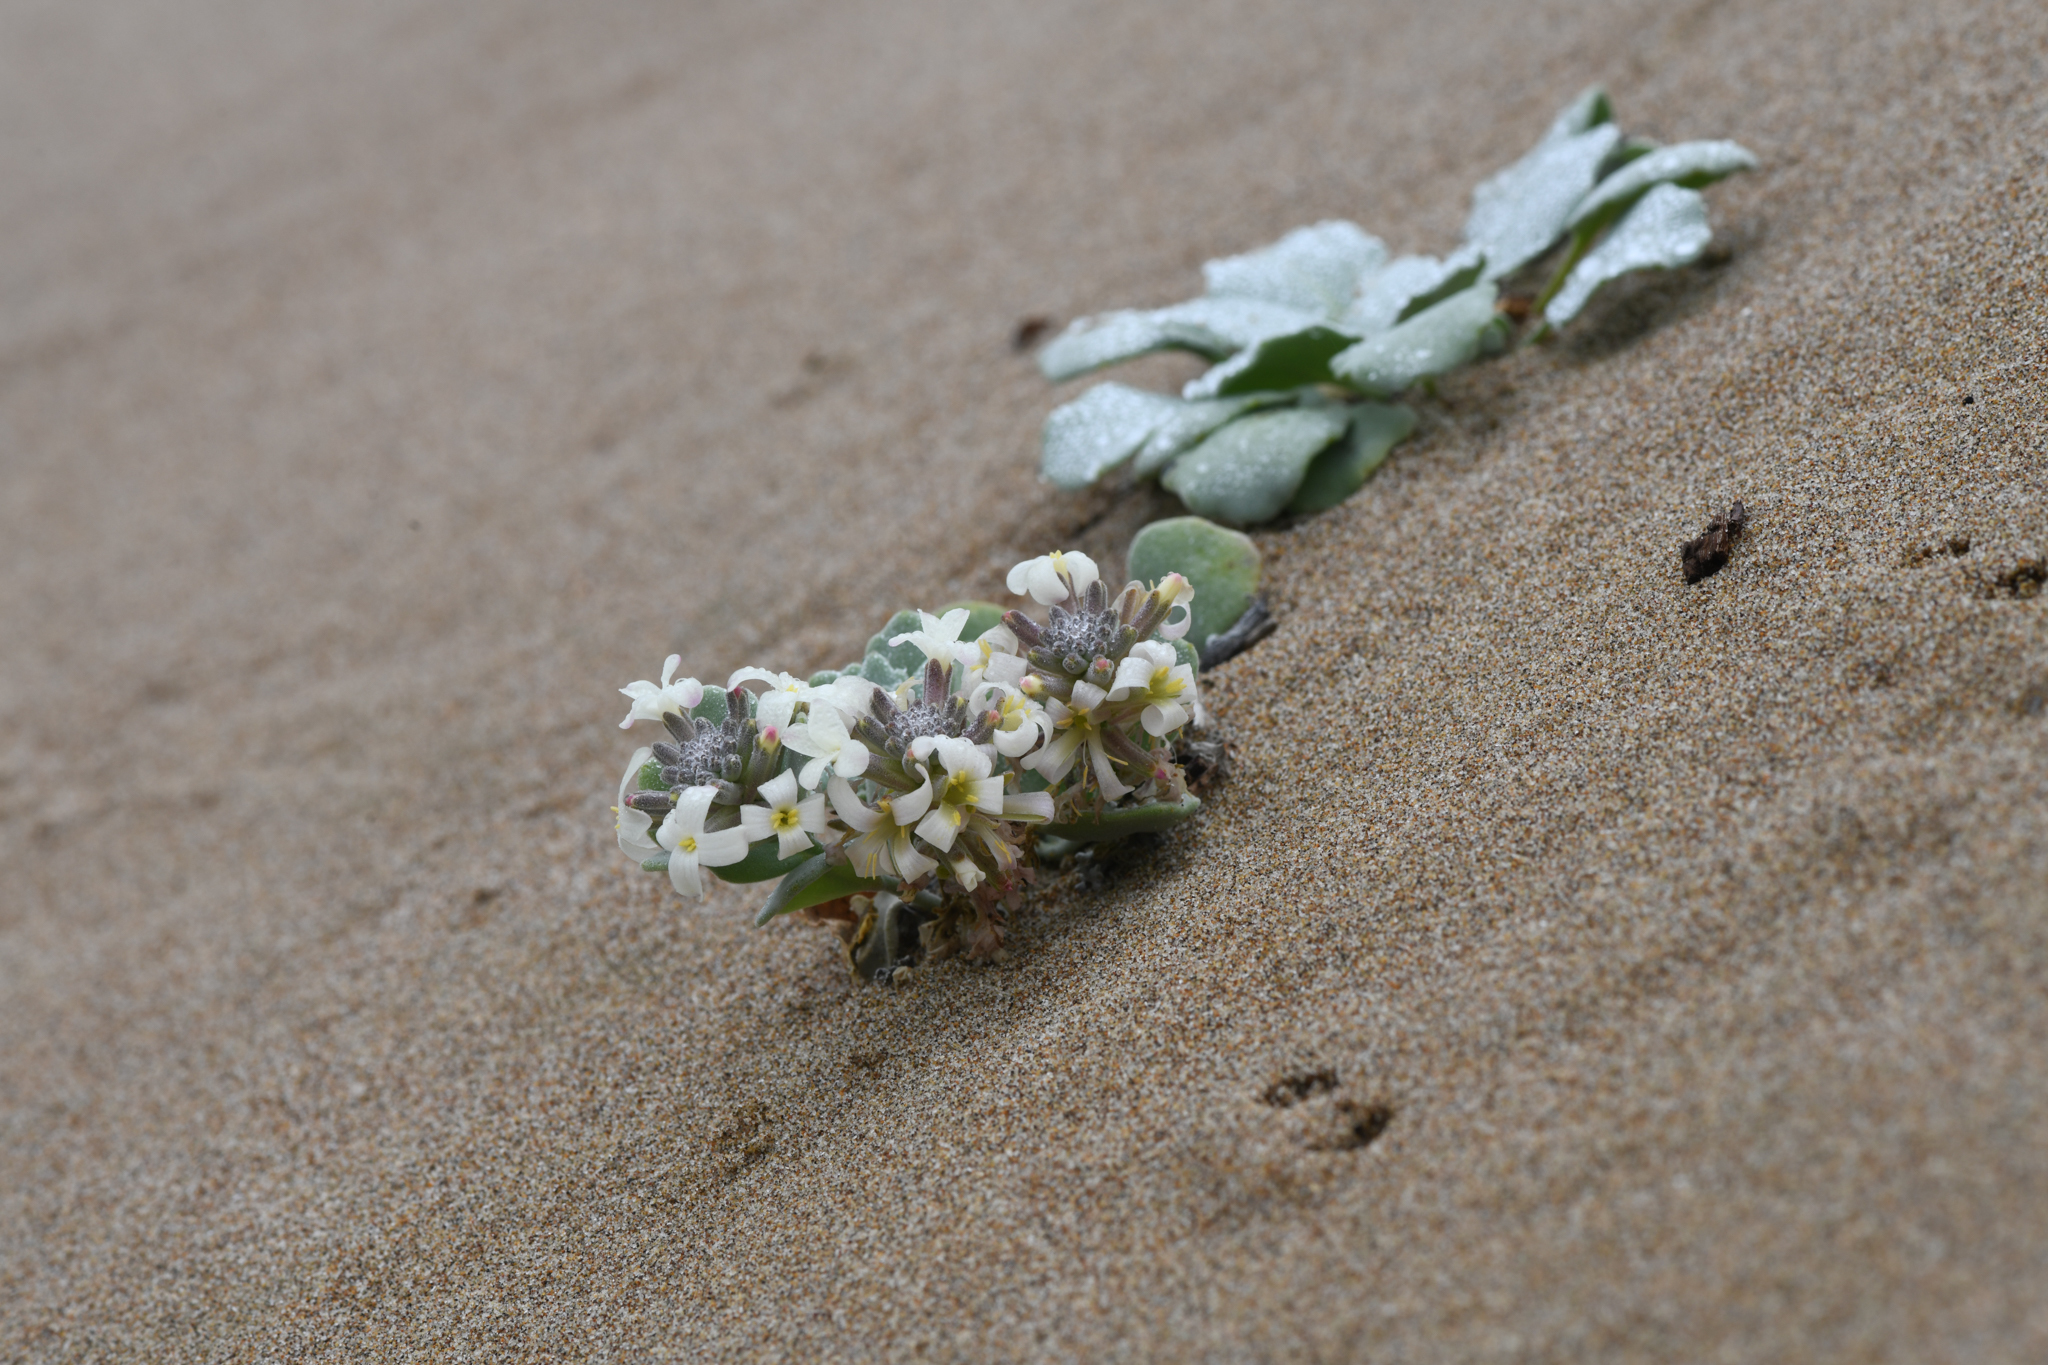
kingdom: Plantae
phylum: Tracheophyta
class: Magnoliopsida
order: Brassicales
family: Brassicaceae
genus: Dithyrea
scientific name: Dithyrea maritima
